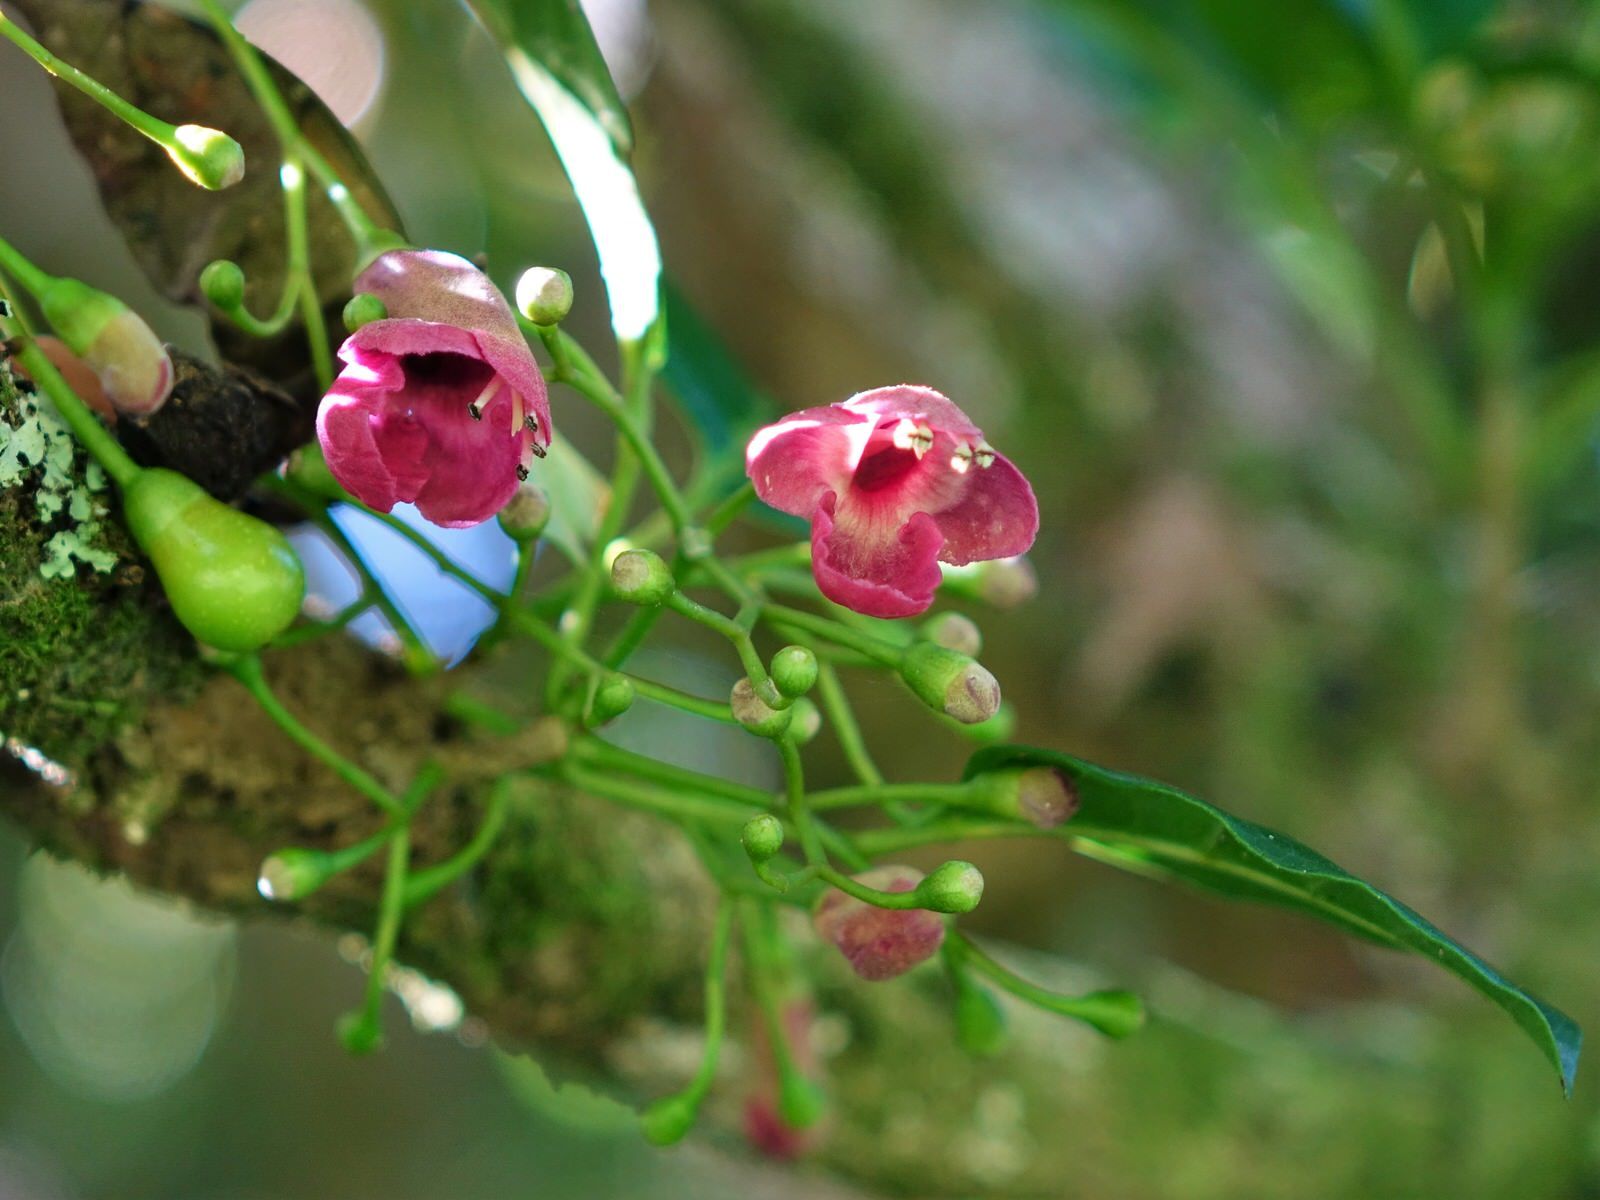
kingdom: Plantae
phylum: Tracheophyta
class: Magnoliopsida
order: Lamiales
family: Lamiaceae
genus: Vitex
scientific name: Vitex lucens
